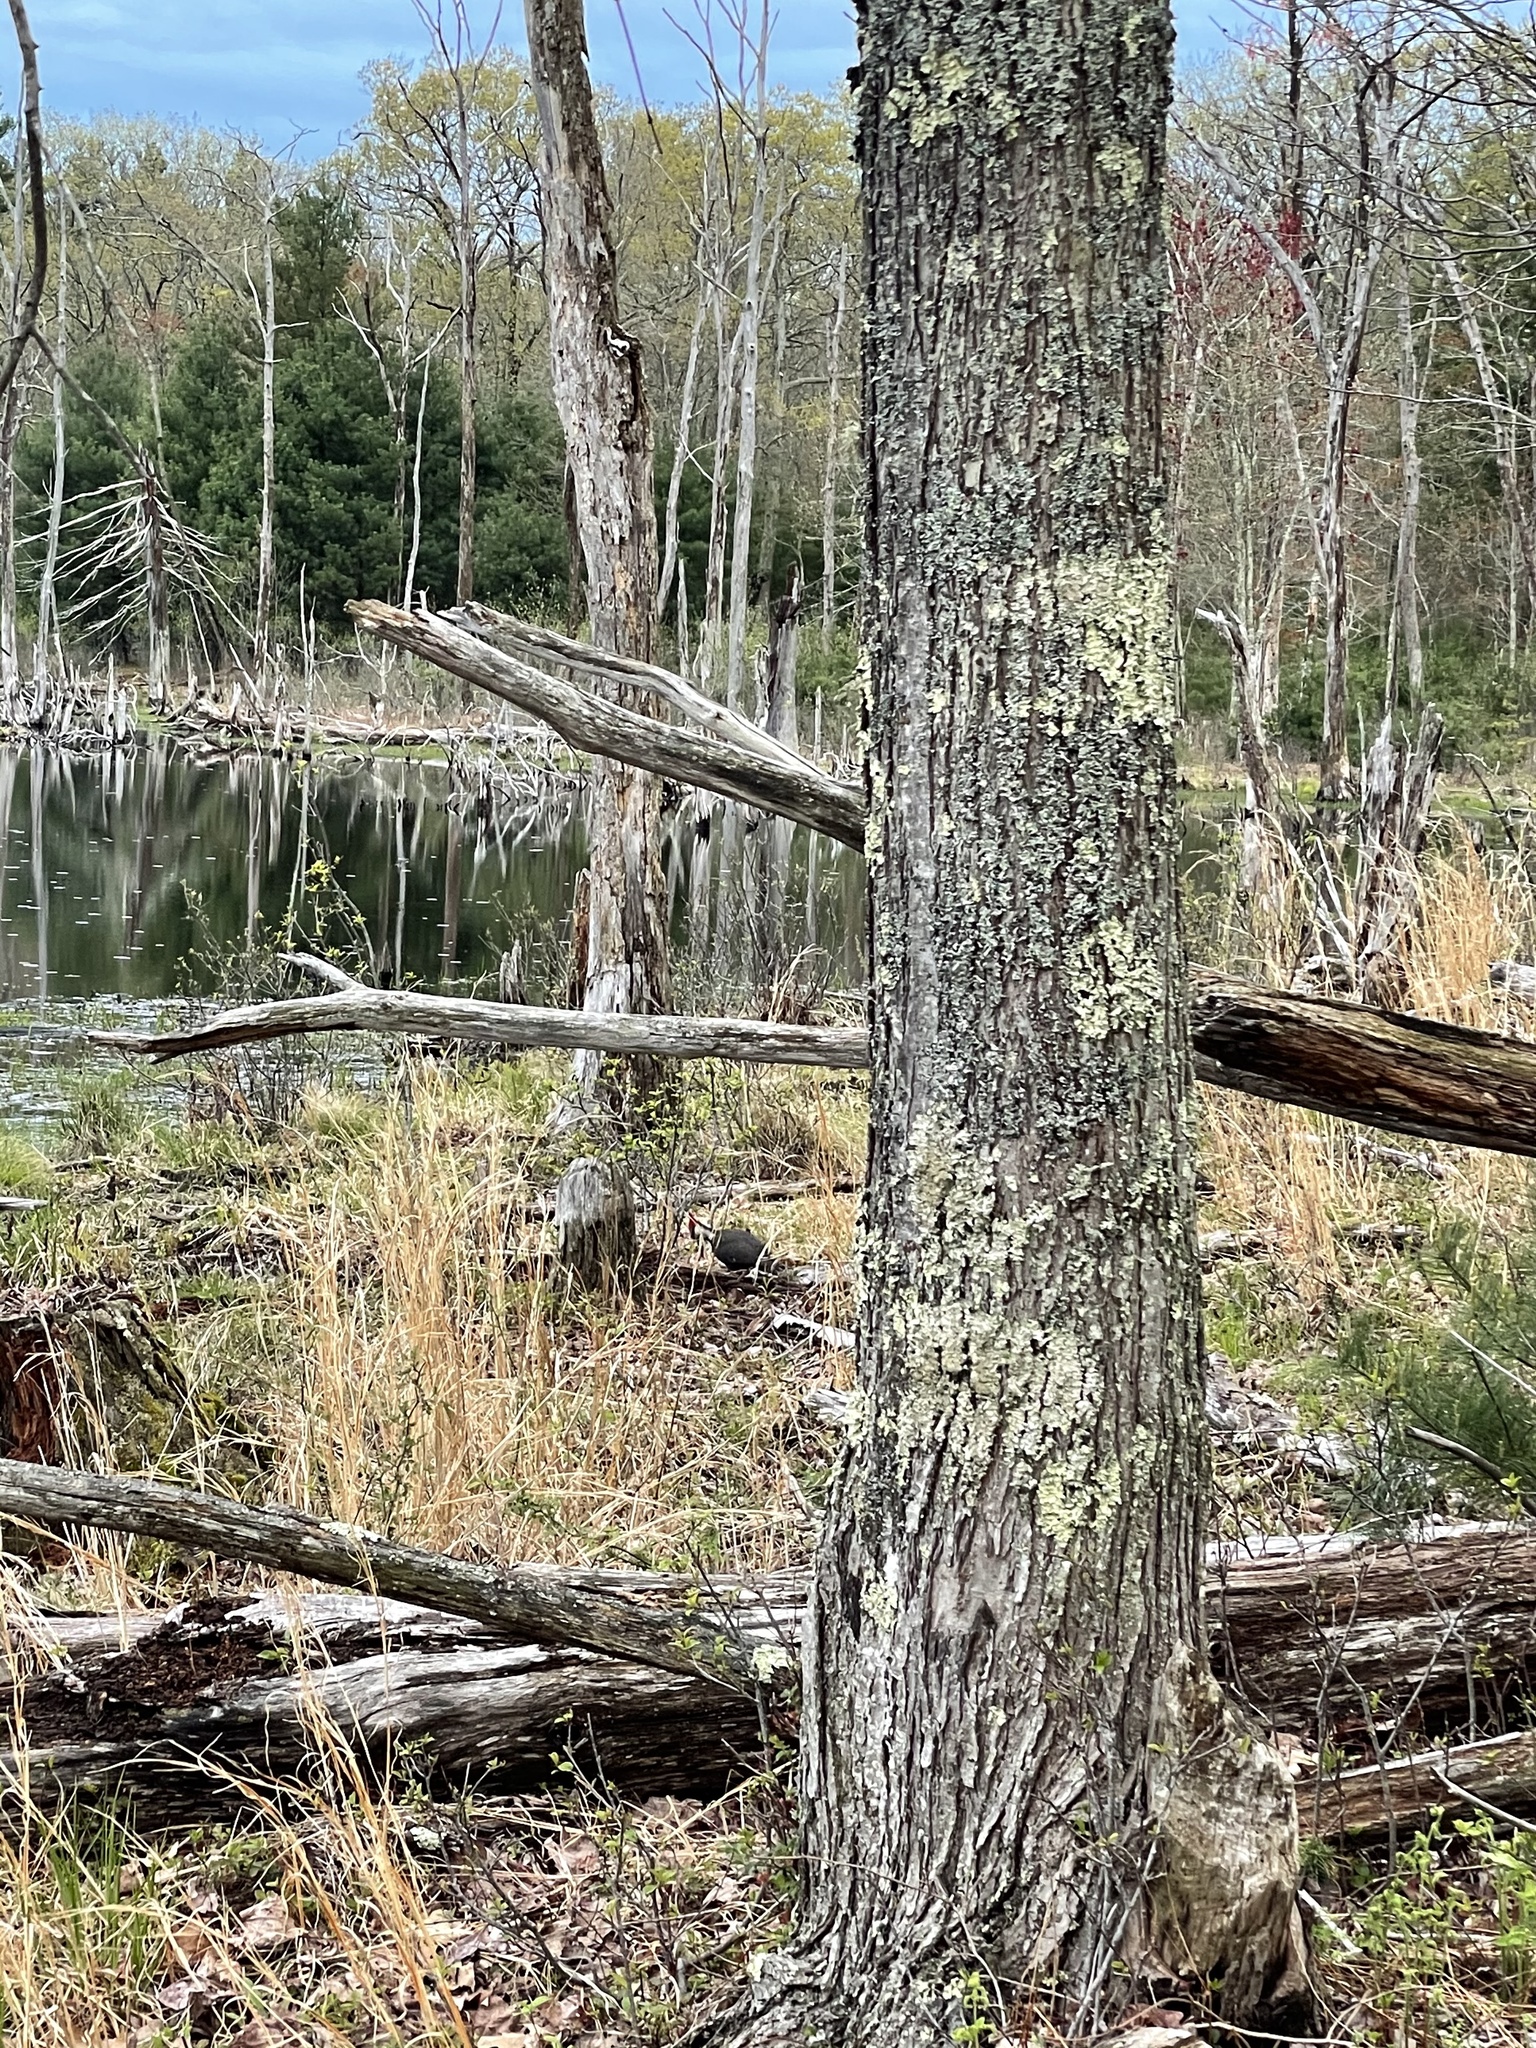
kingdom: Animalia
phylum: Chordata
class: Aves
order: Piciformes
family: Picidae
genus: Dryocopus
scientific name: Dryocopus pileatus
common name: Pileated woodpecker
